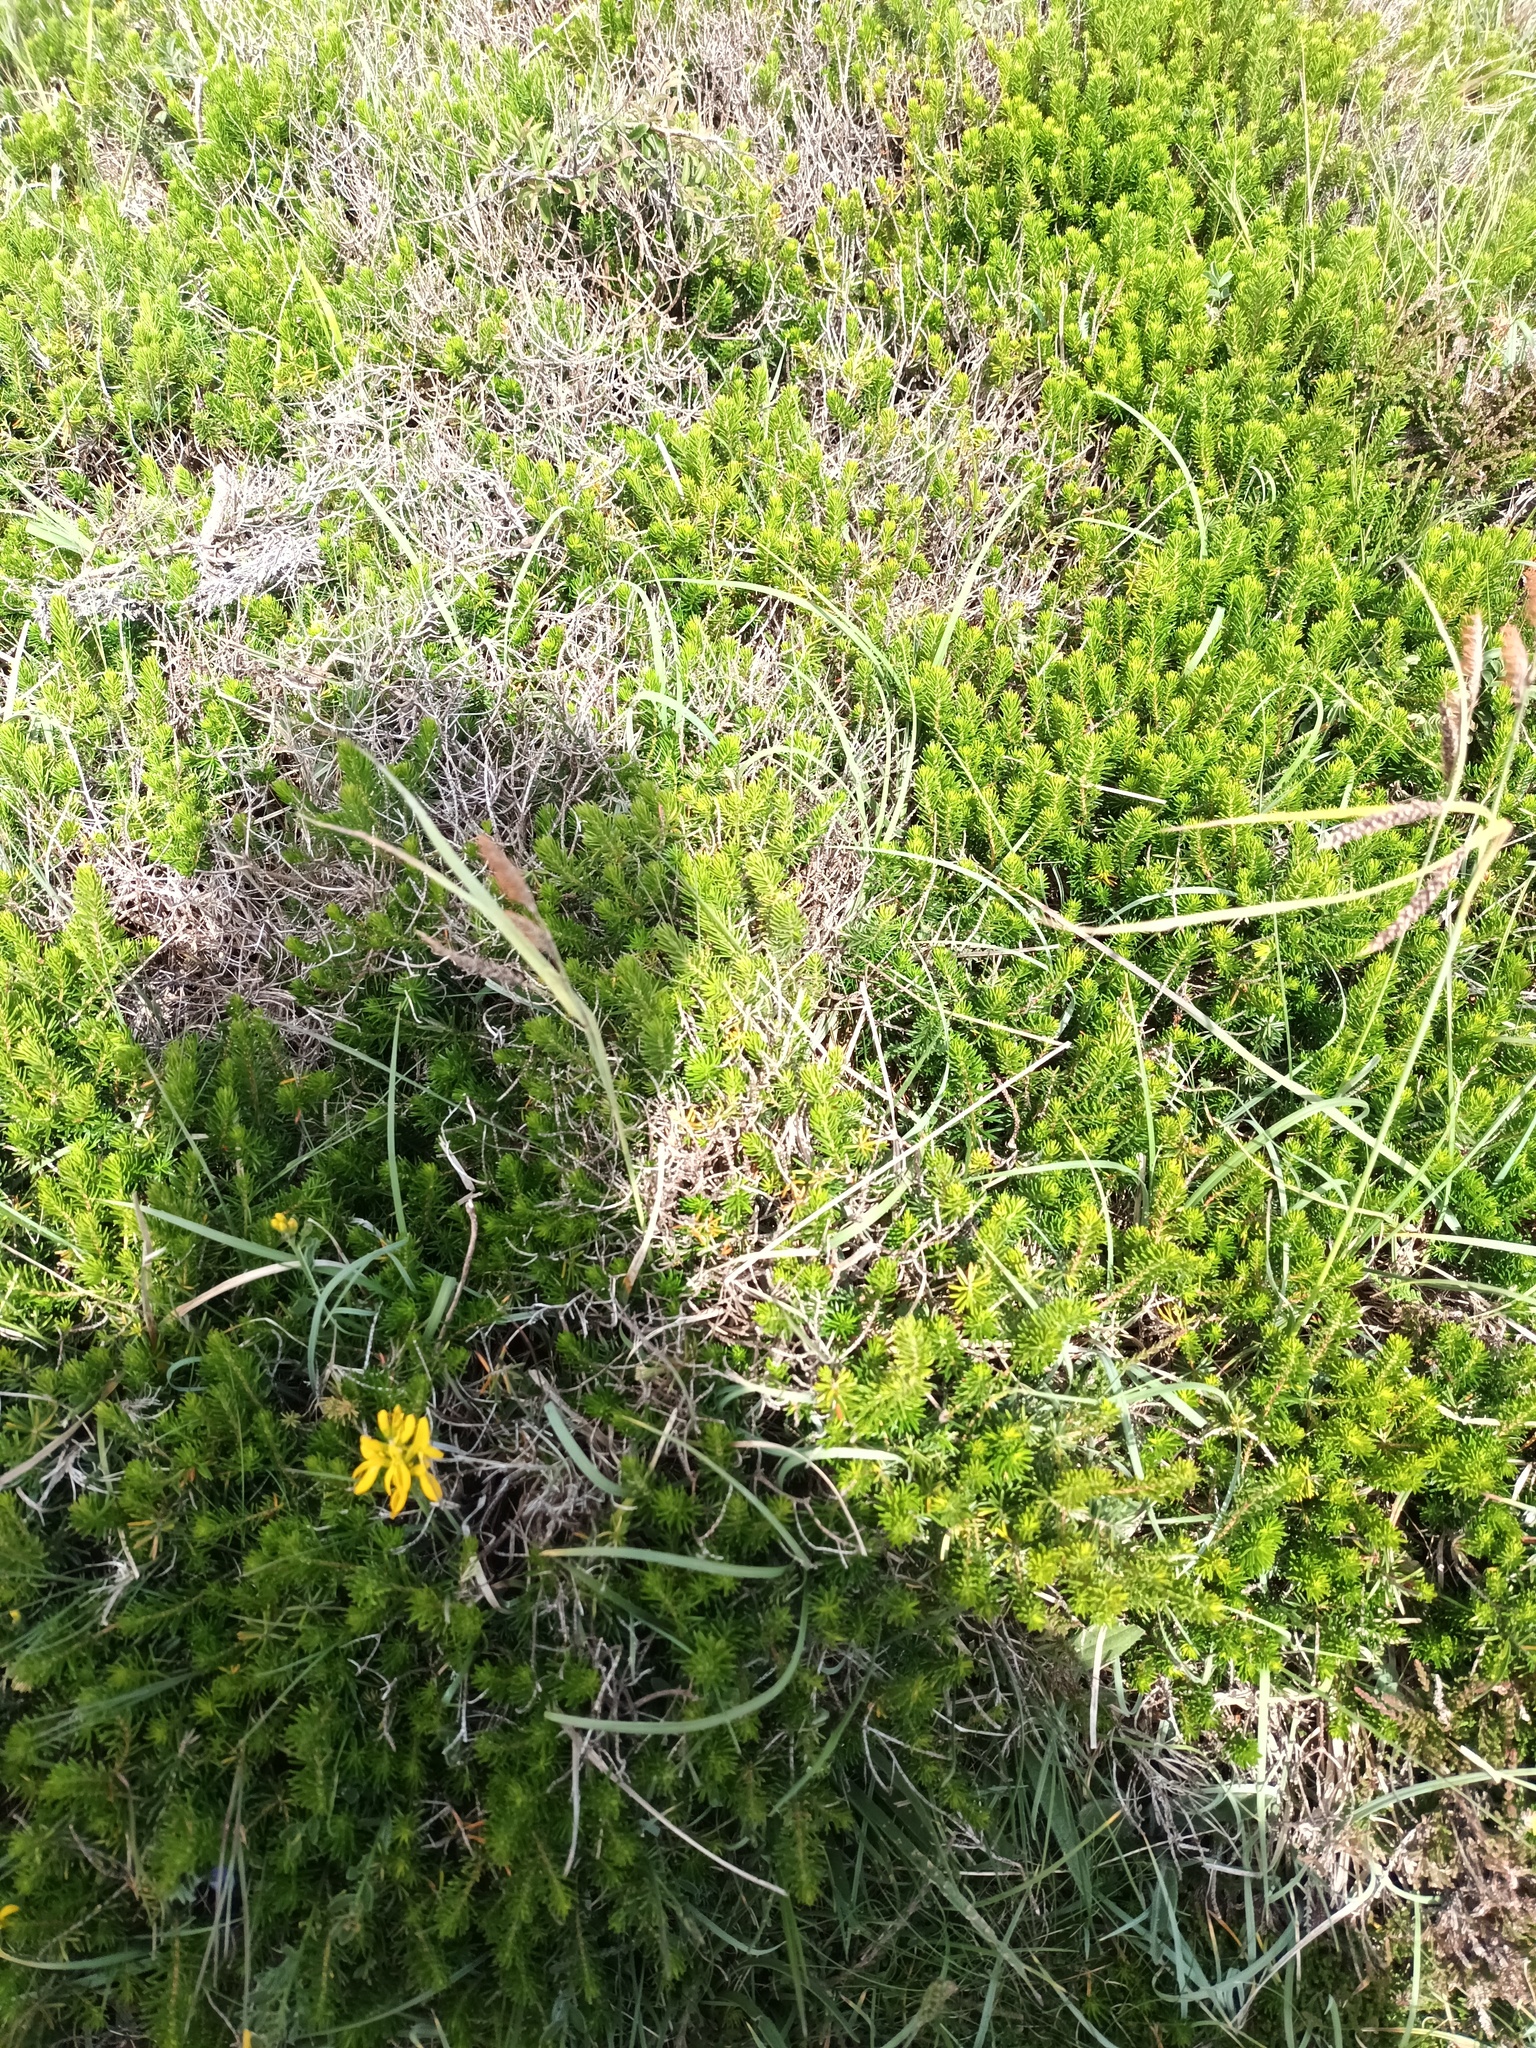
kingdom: Plantae
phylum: Tracheophyta
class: Magnoliopsida
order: Ericales
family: Ericaceae
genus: Erica
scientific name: Erica vagans
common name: Cornish heath
